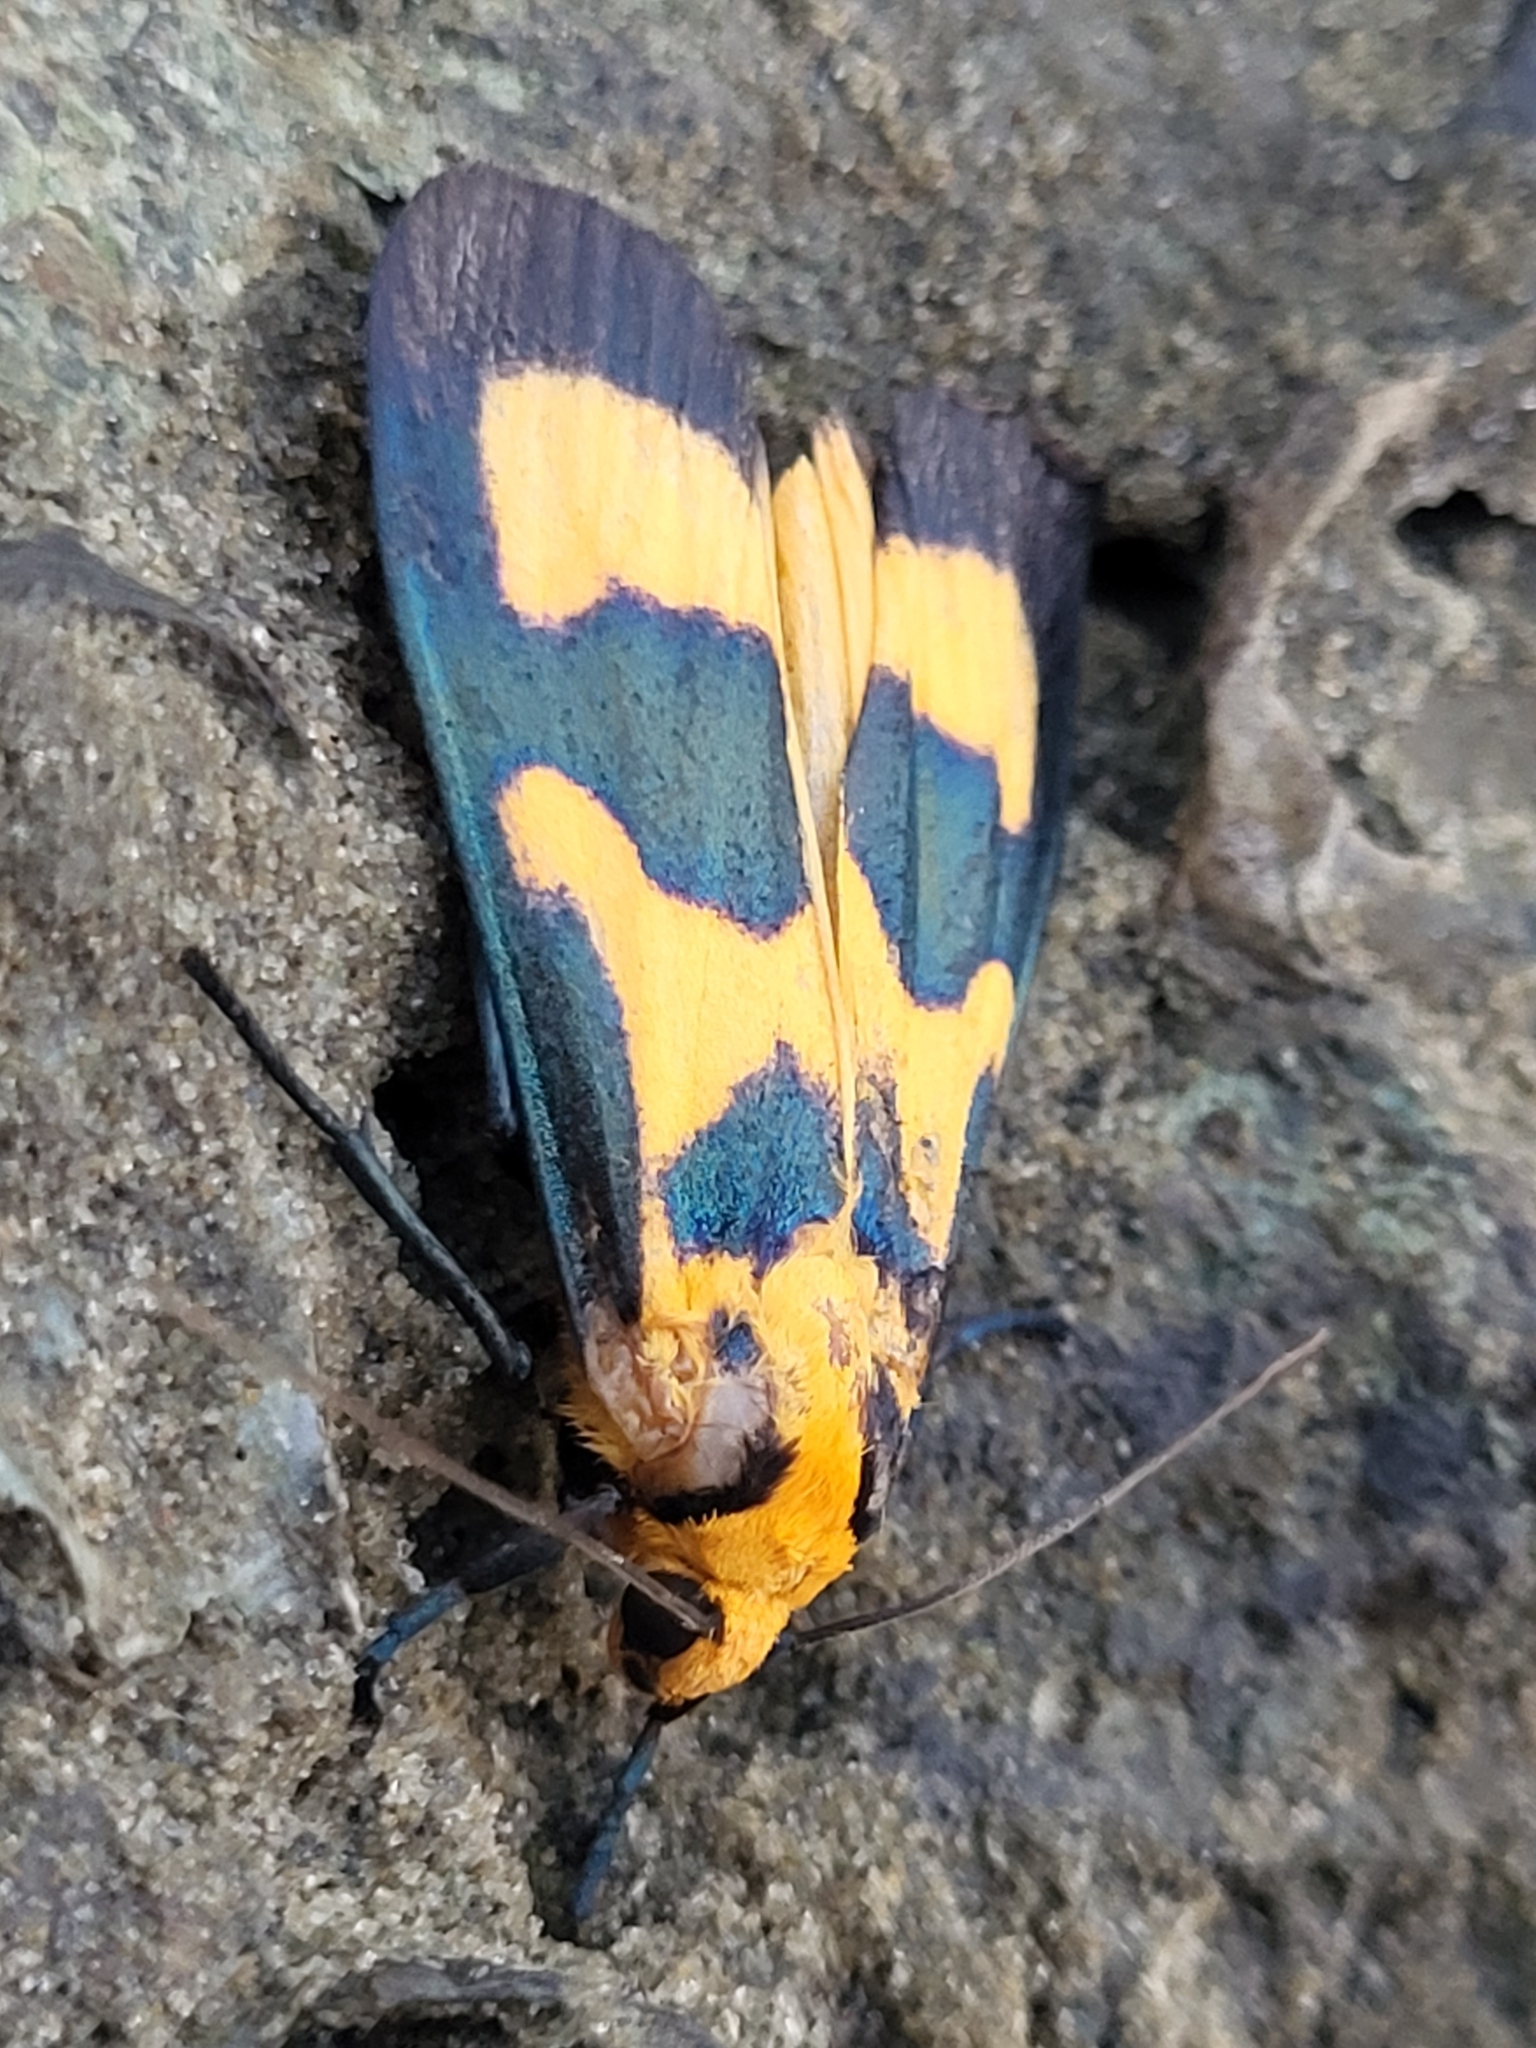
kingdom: Animalia
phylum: Arthropoda
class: Insecta
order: Lepidoptera
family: Erebidae
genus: Chrysaeglia
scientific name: Chrysaeglia magnifica
